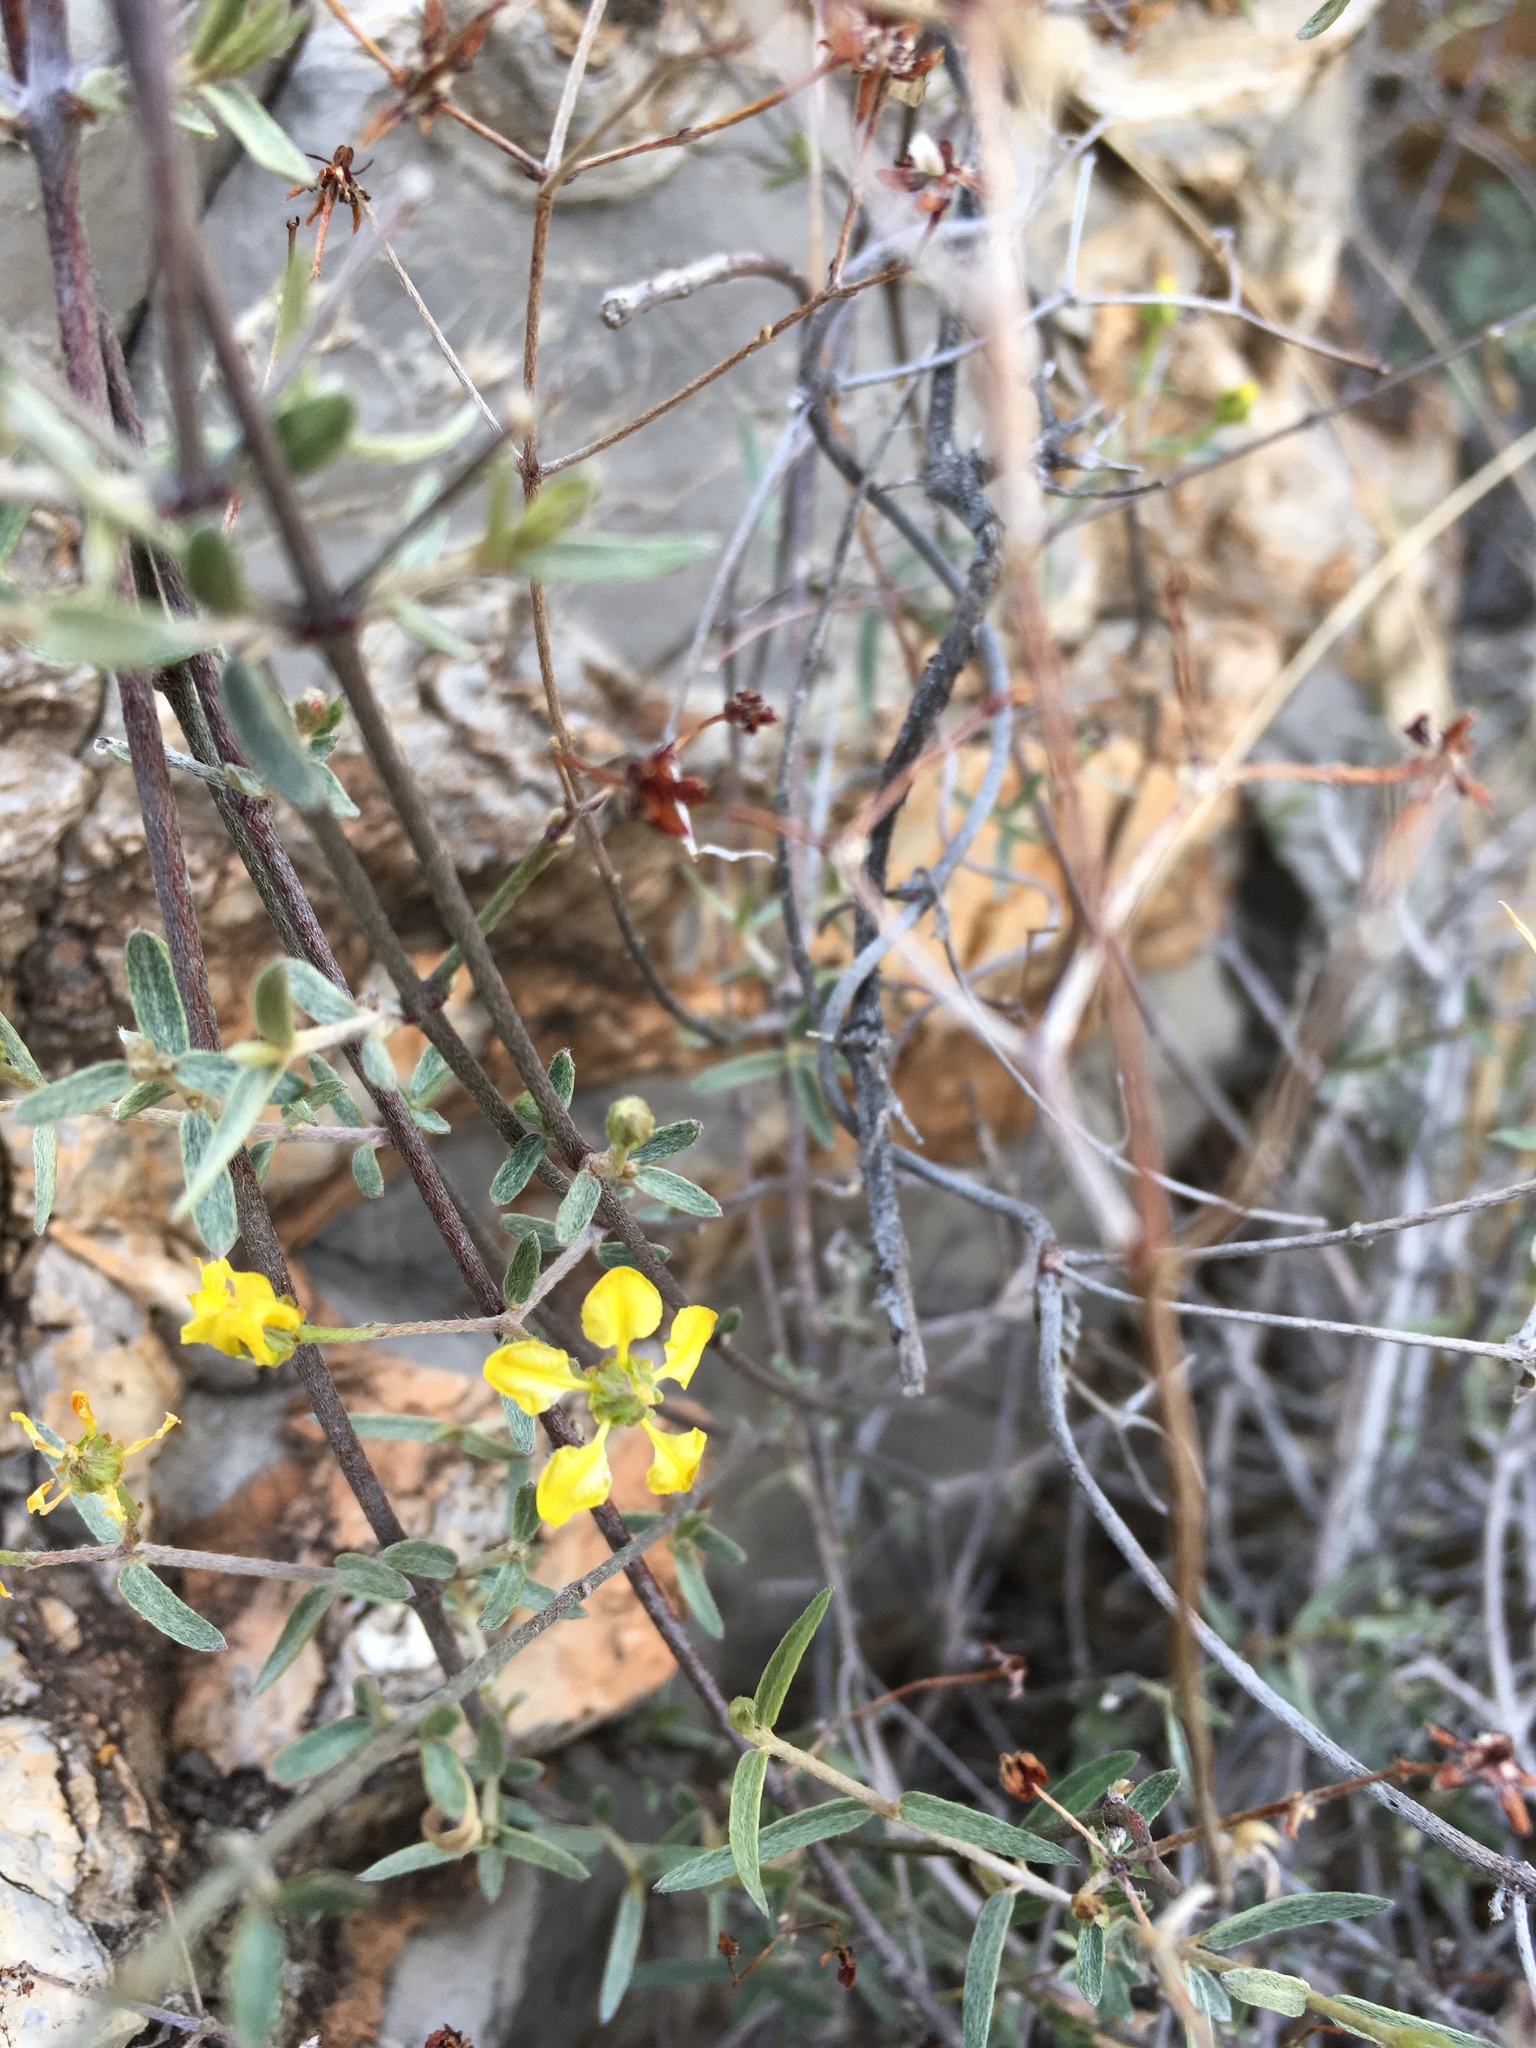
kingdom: Plantae
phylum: Tracheophyta
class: Magnoliopsida
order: Malpighiales
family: Malpighiaceae
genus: Cottsia
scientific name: Cottsia gracilis
